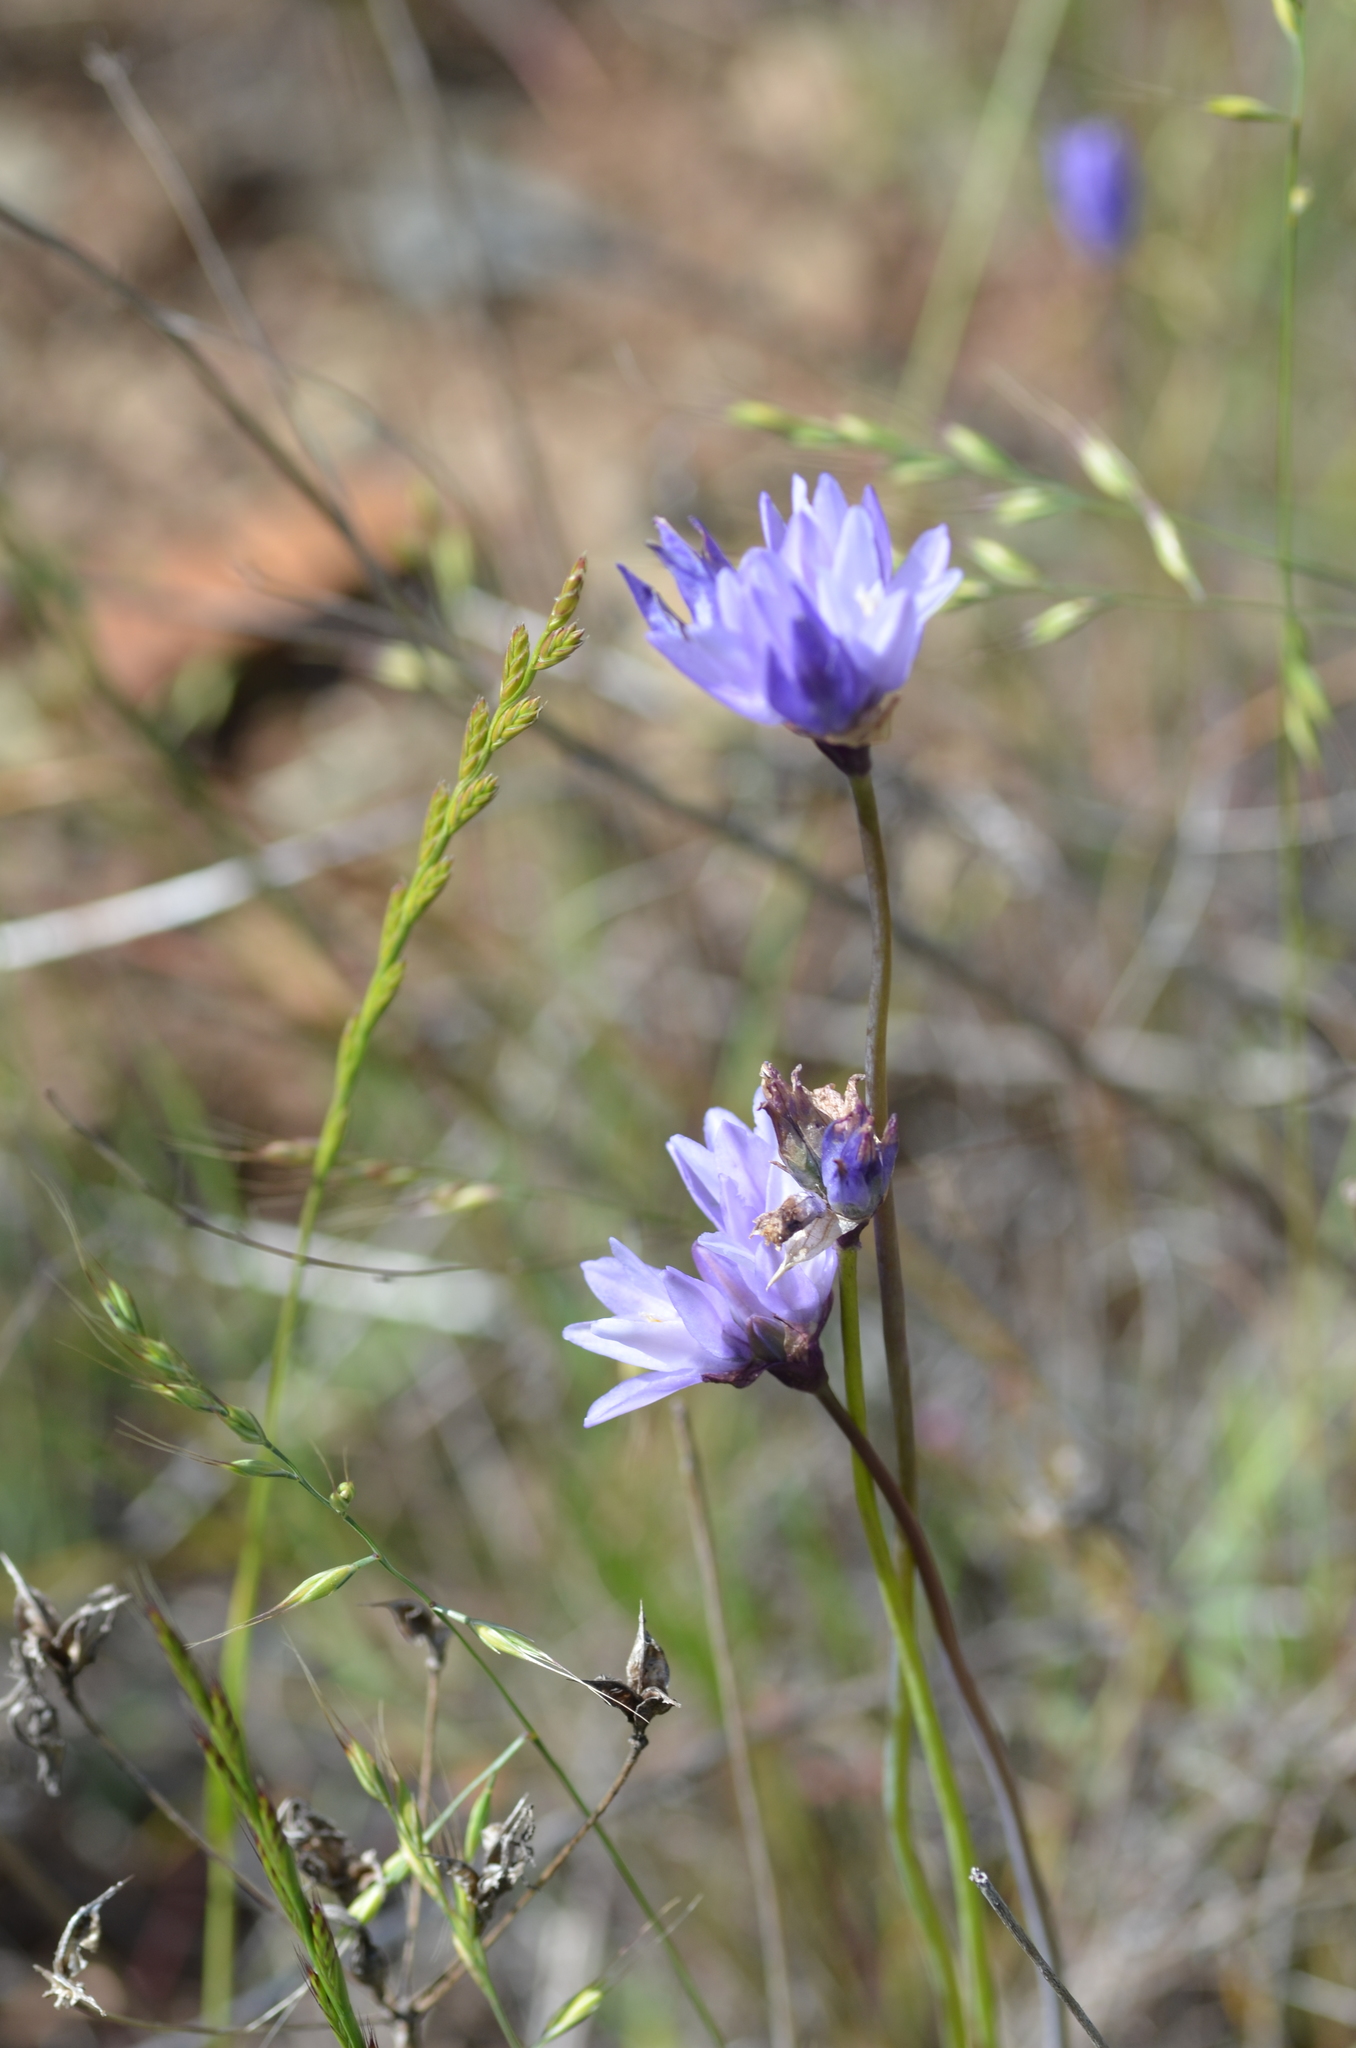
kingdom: Plantae
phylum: Tracheophyta
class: Liliopsida
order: Asparagales
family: Asparagaceae
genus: Dipterostemon
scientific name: Dipterostemon capitatus
